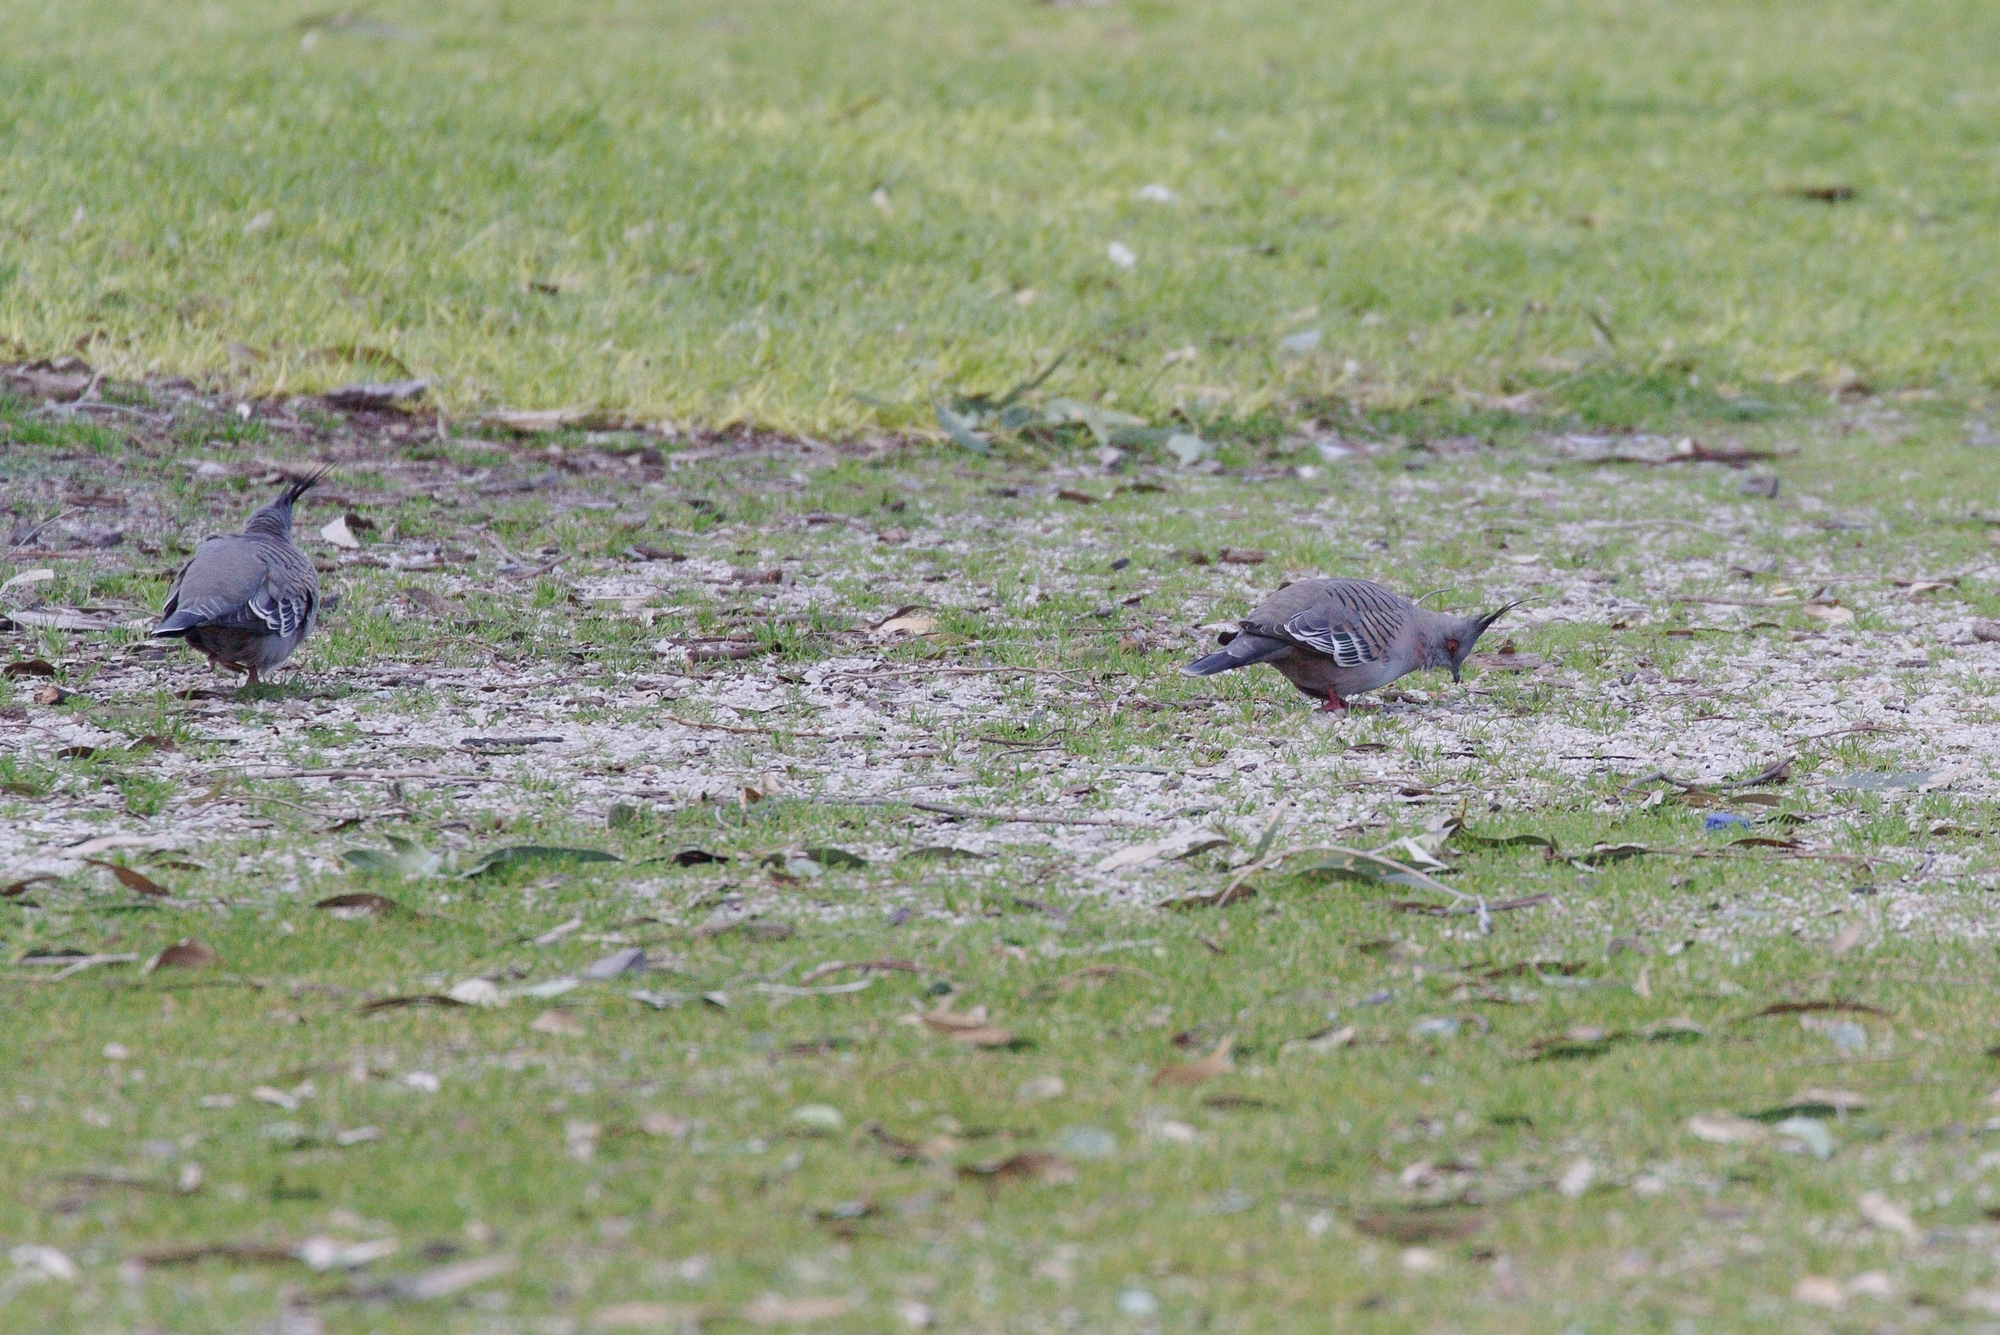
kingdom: Animalia
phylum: Chordata
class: Aves
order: Columbiformes
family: Columbidae
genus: Ocyphaps
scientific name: Ocyphaps lophotes
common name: Crested pigeon
